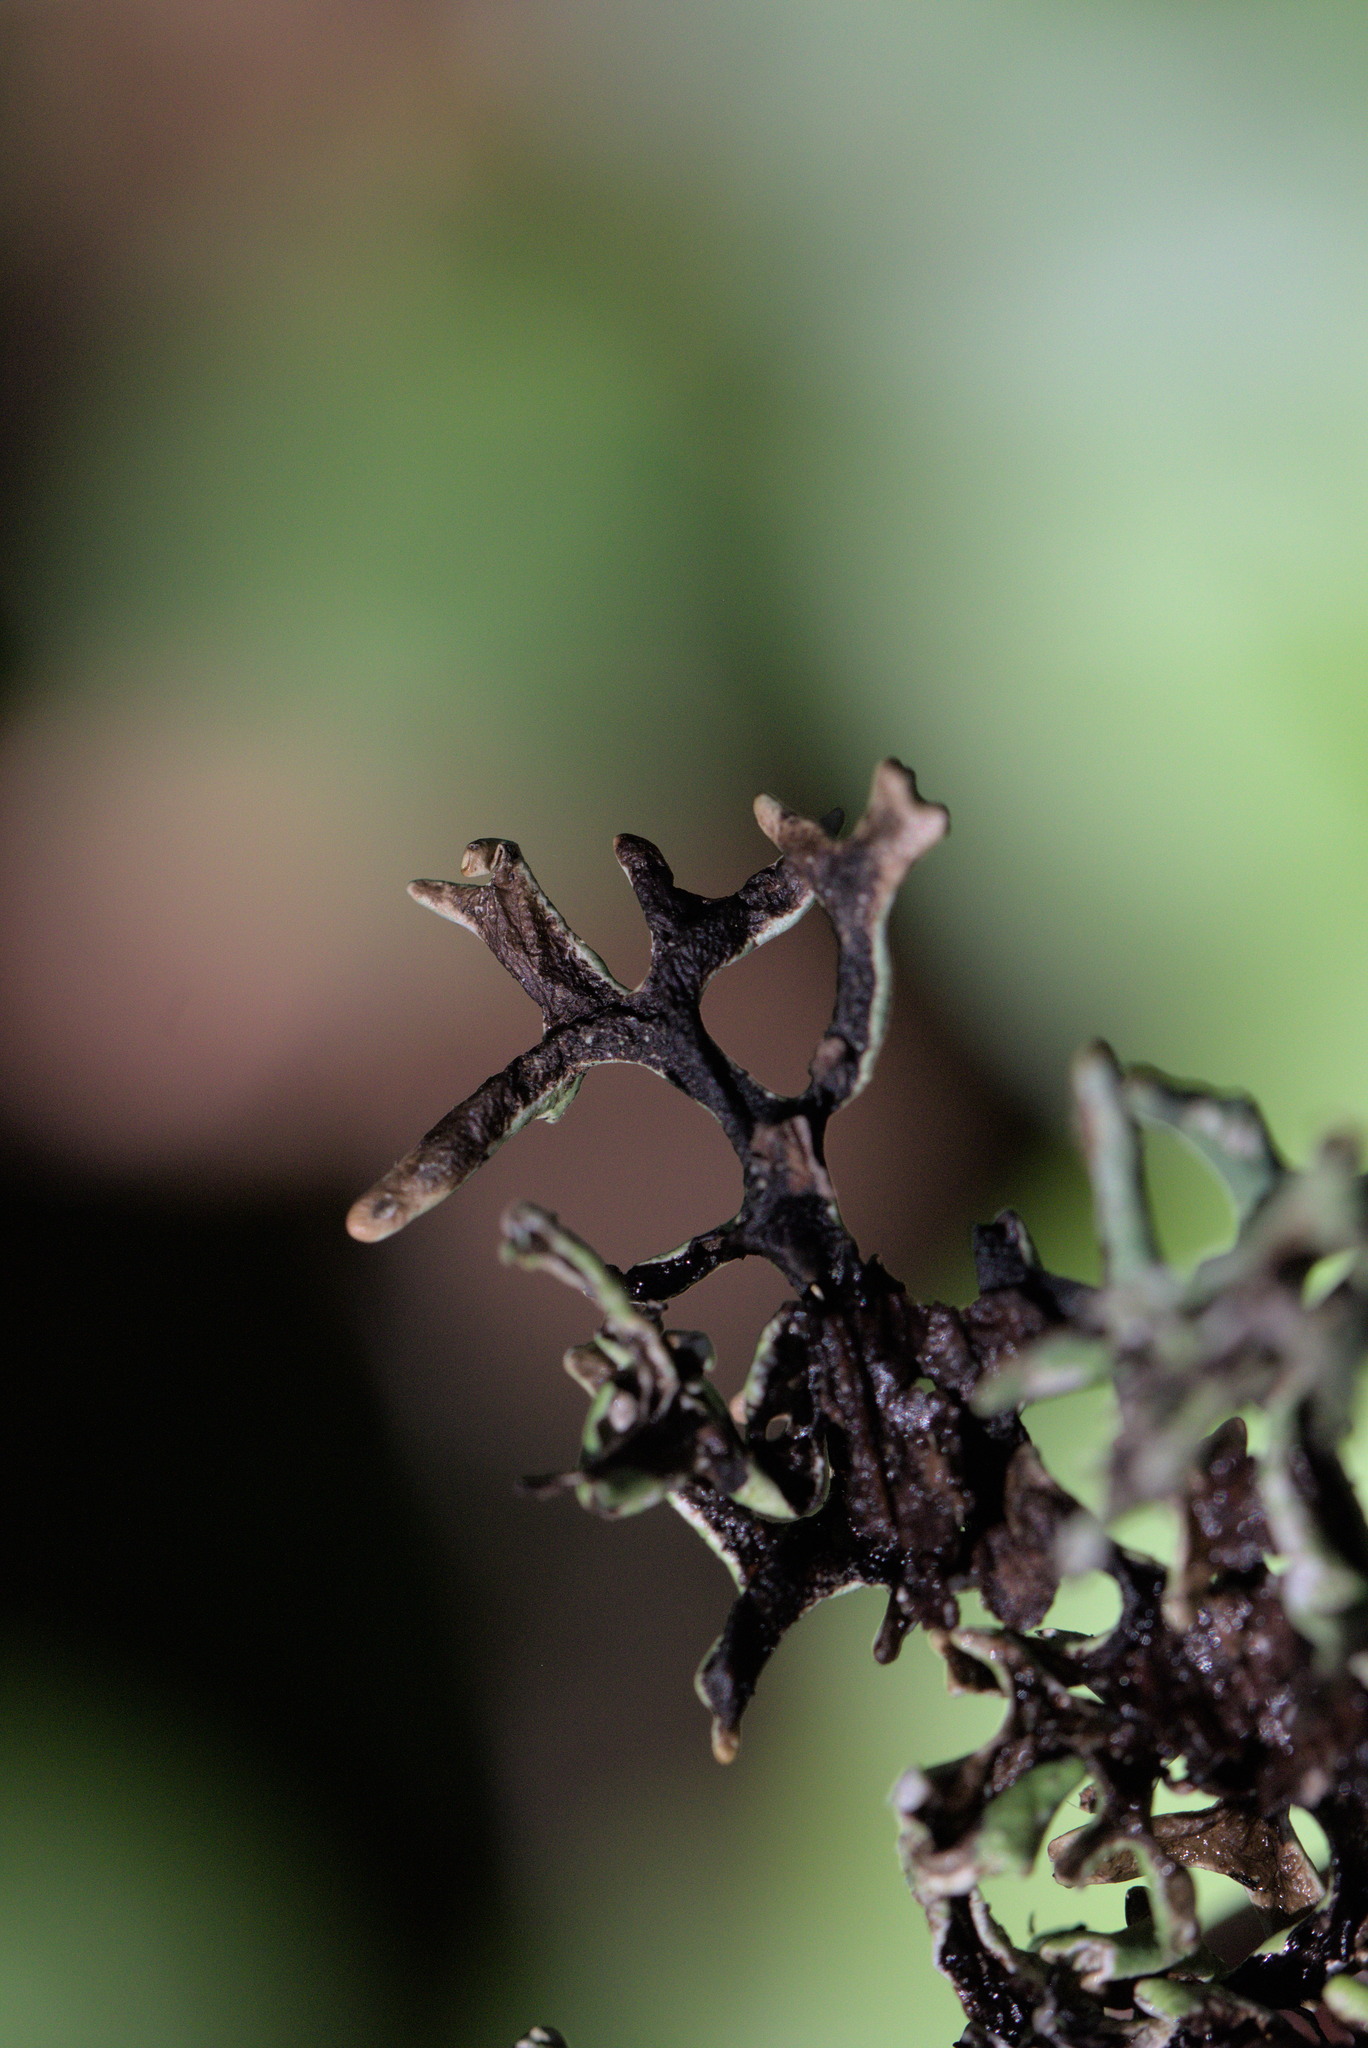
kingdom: Fungi
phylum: Ascomycota
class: Lecanoromycetes
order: Lecanorales
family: Parmeliaceae
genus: Hypogymnia
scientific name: Hypogymnia inactiva
